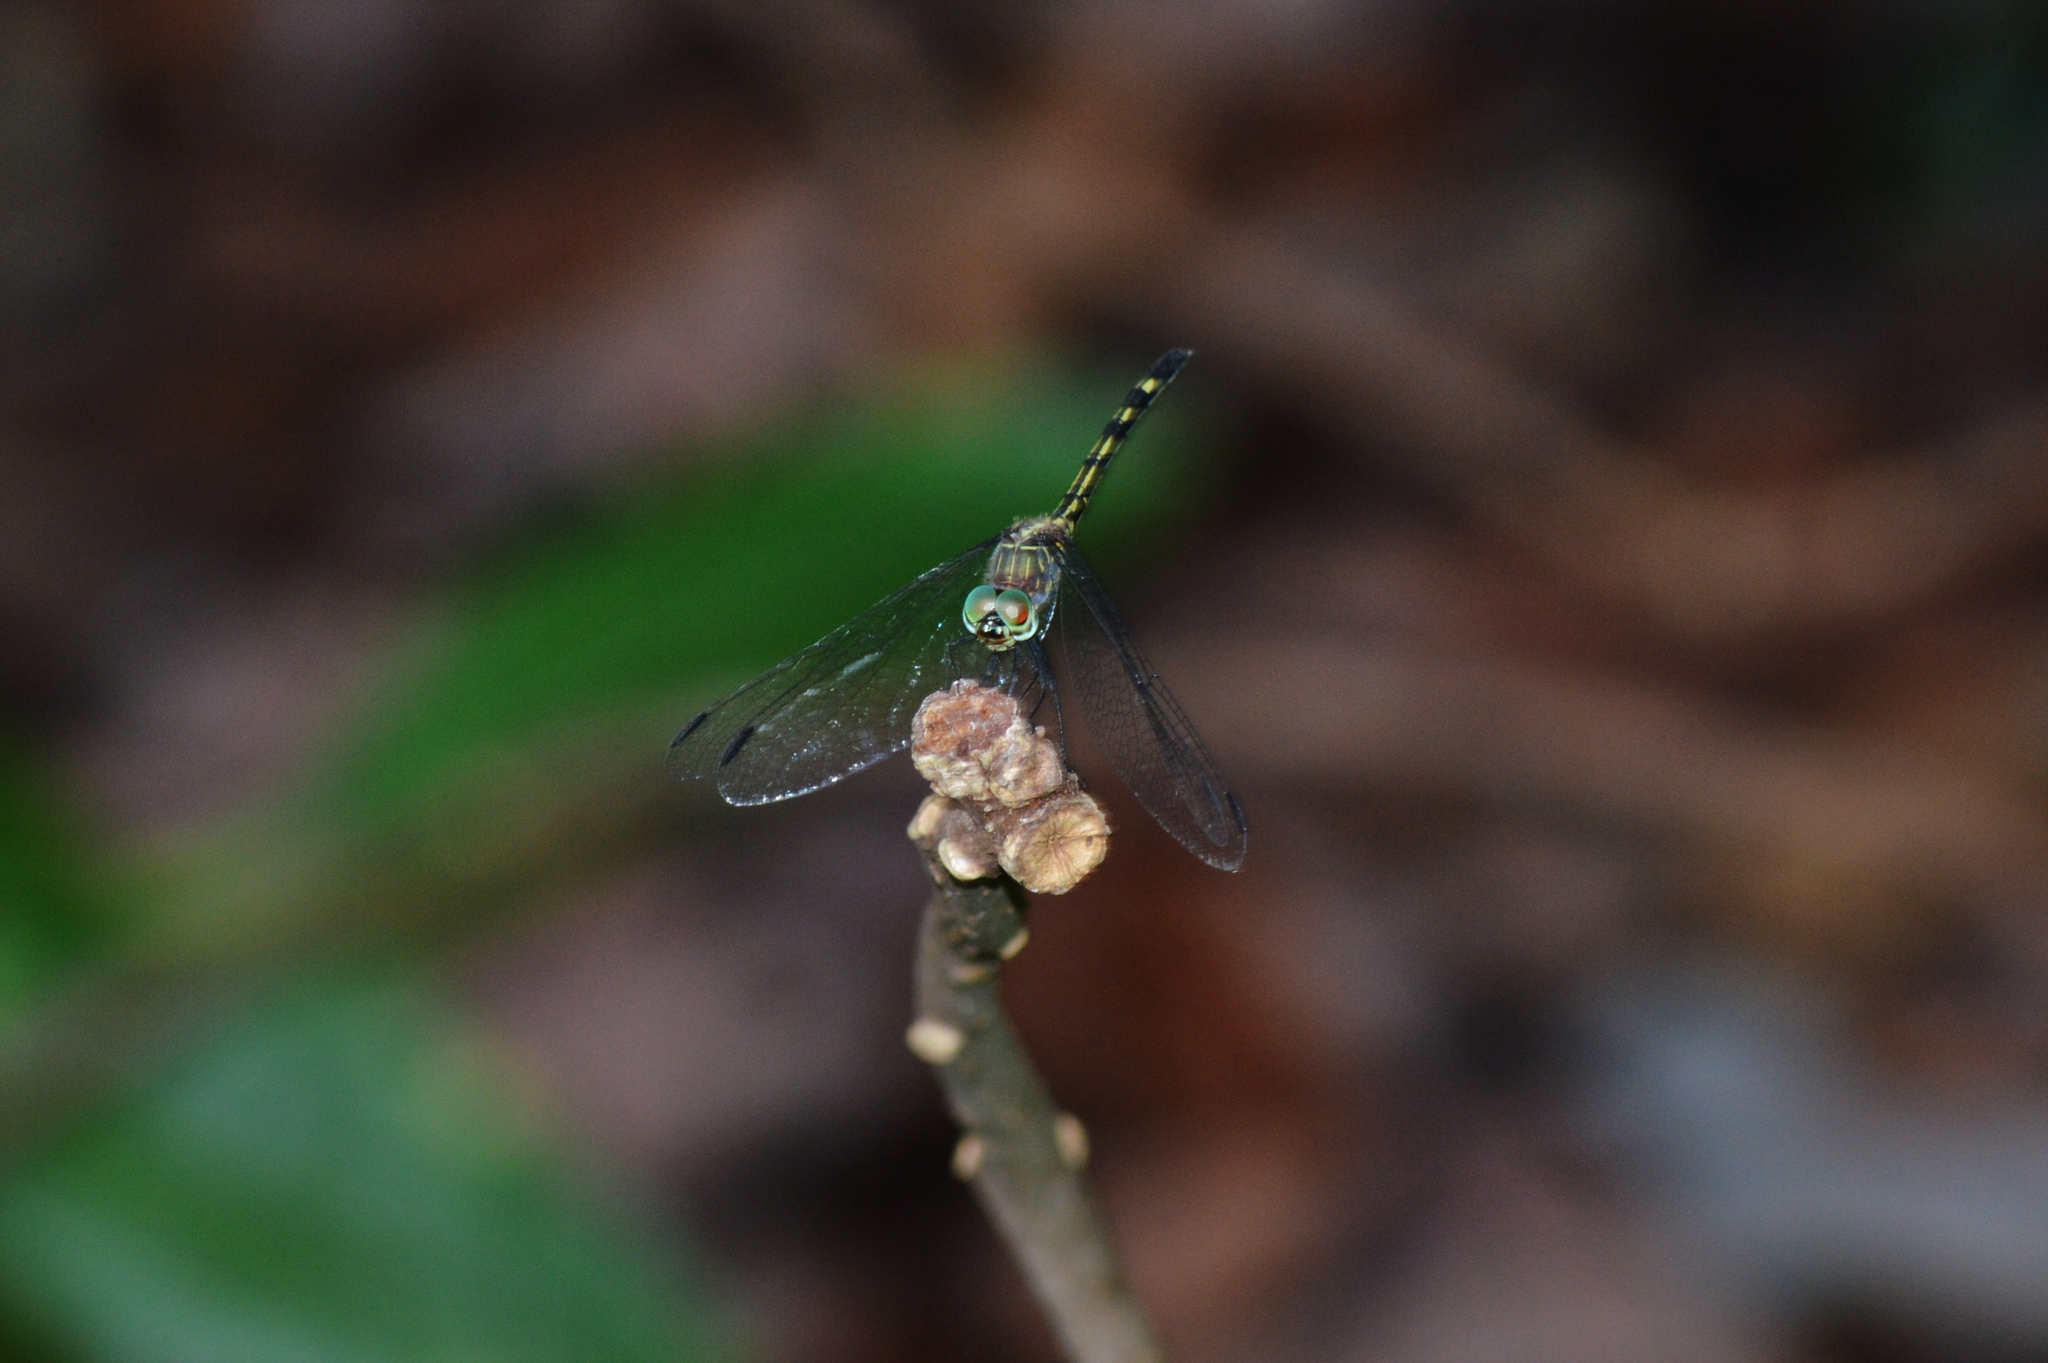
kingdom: Animalia
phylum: Arthropoda
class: Insecta
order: Odonata
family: Libellulidae
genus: Dythemis
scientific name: Dythemis nigra
